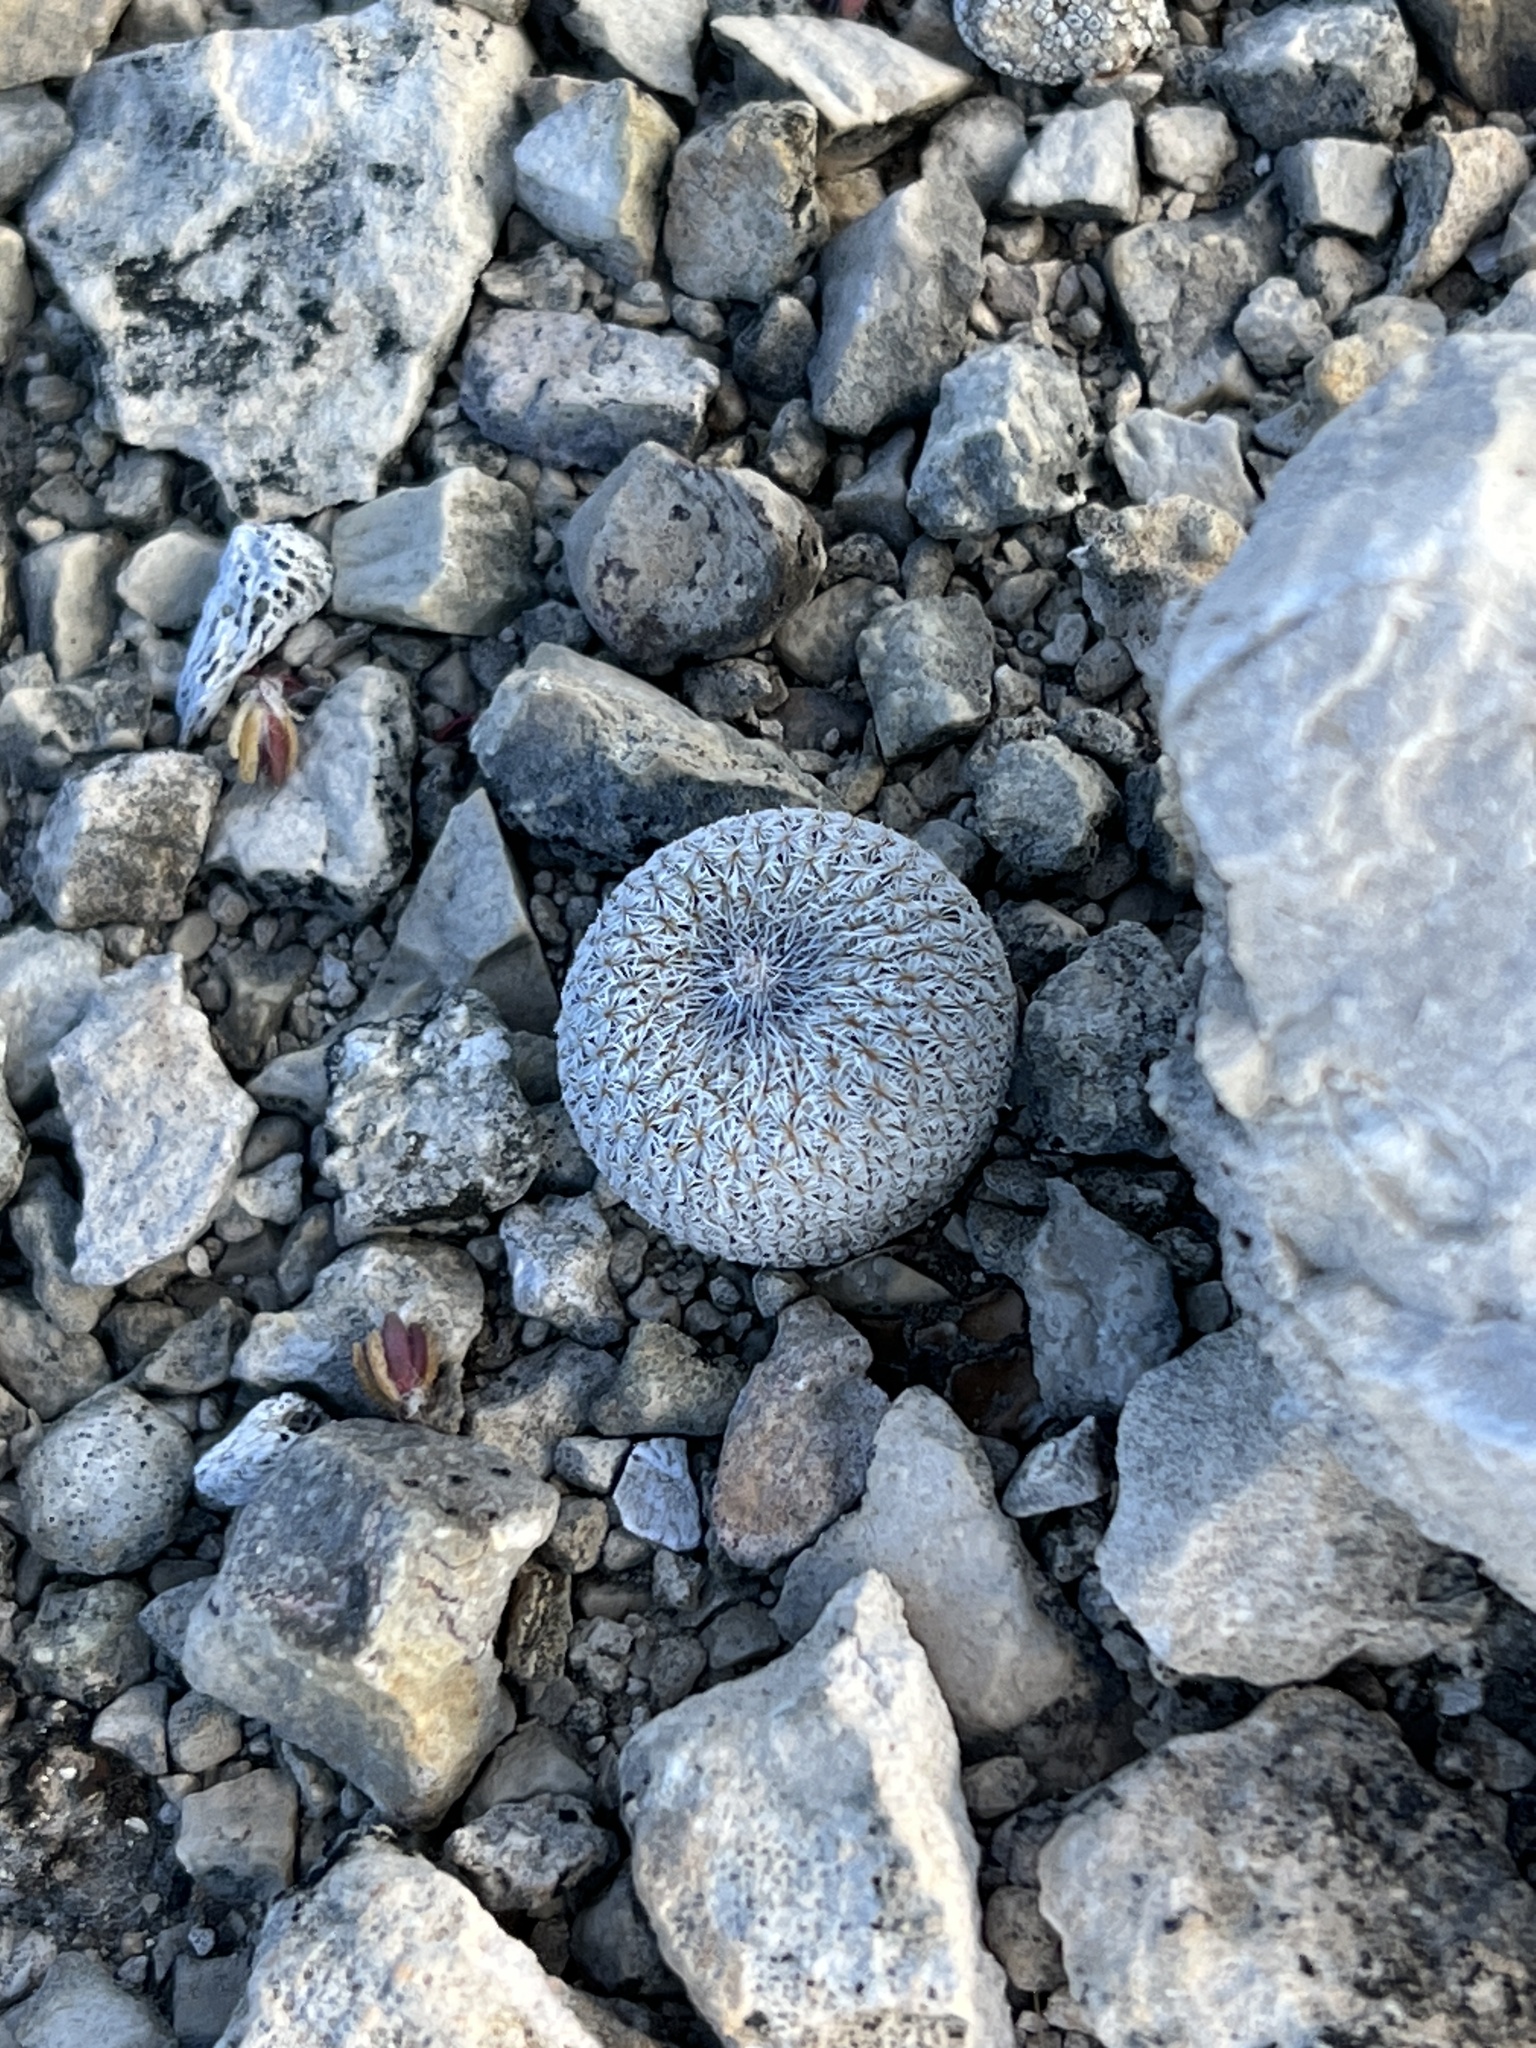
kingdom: Plantae
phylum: Tracheophyta
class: Magnoliopsida
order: Caryophyllales
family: Cactaceae
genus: Epithelantha
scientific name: Epithelantha micromeris
